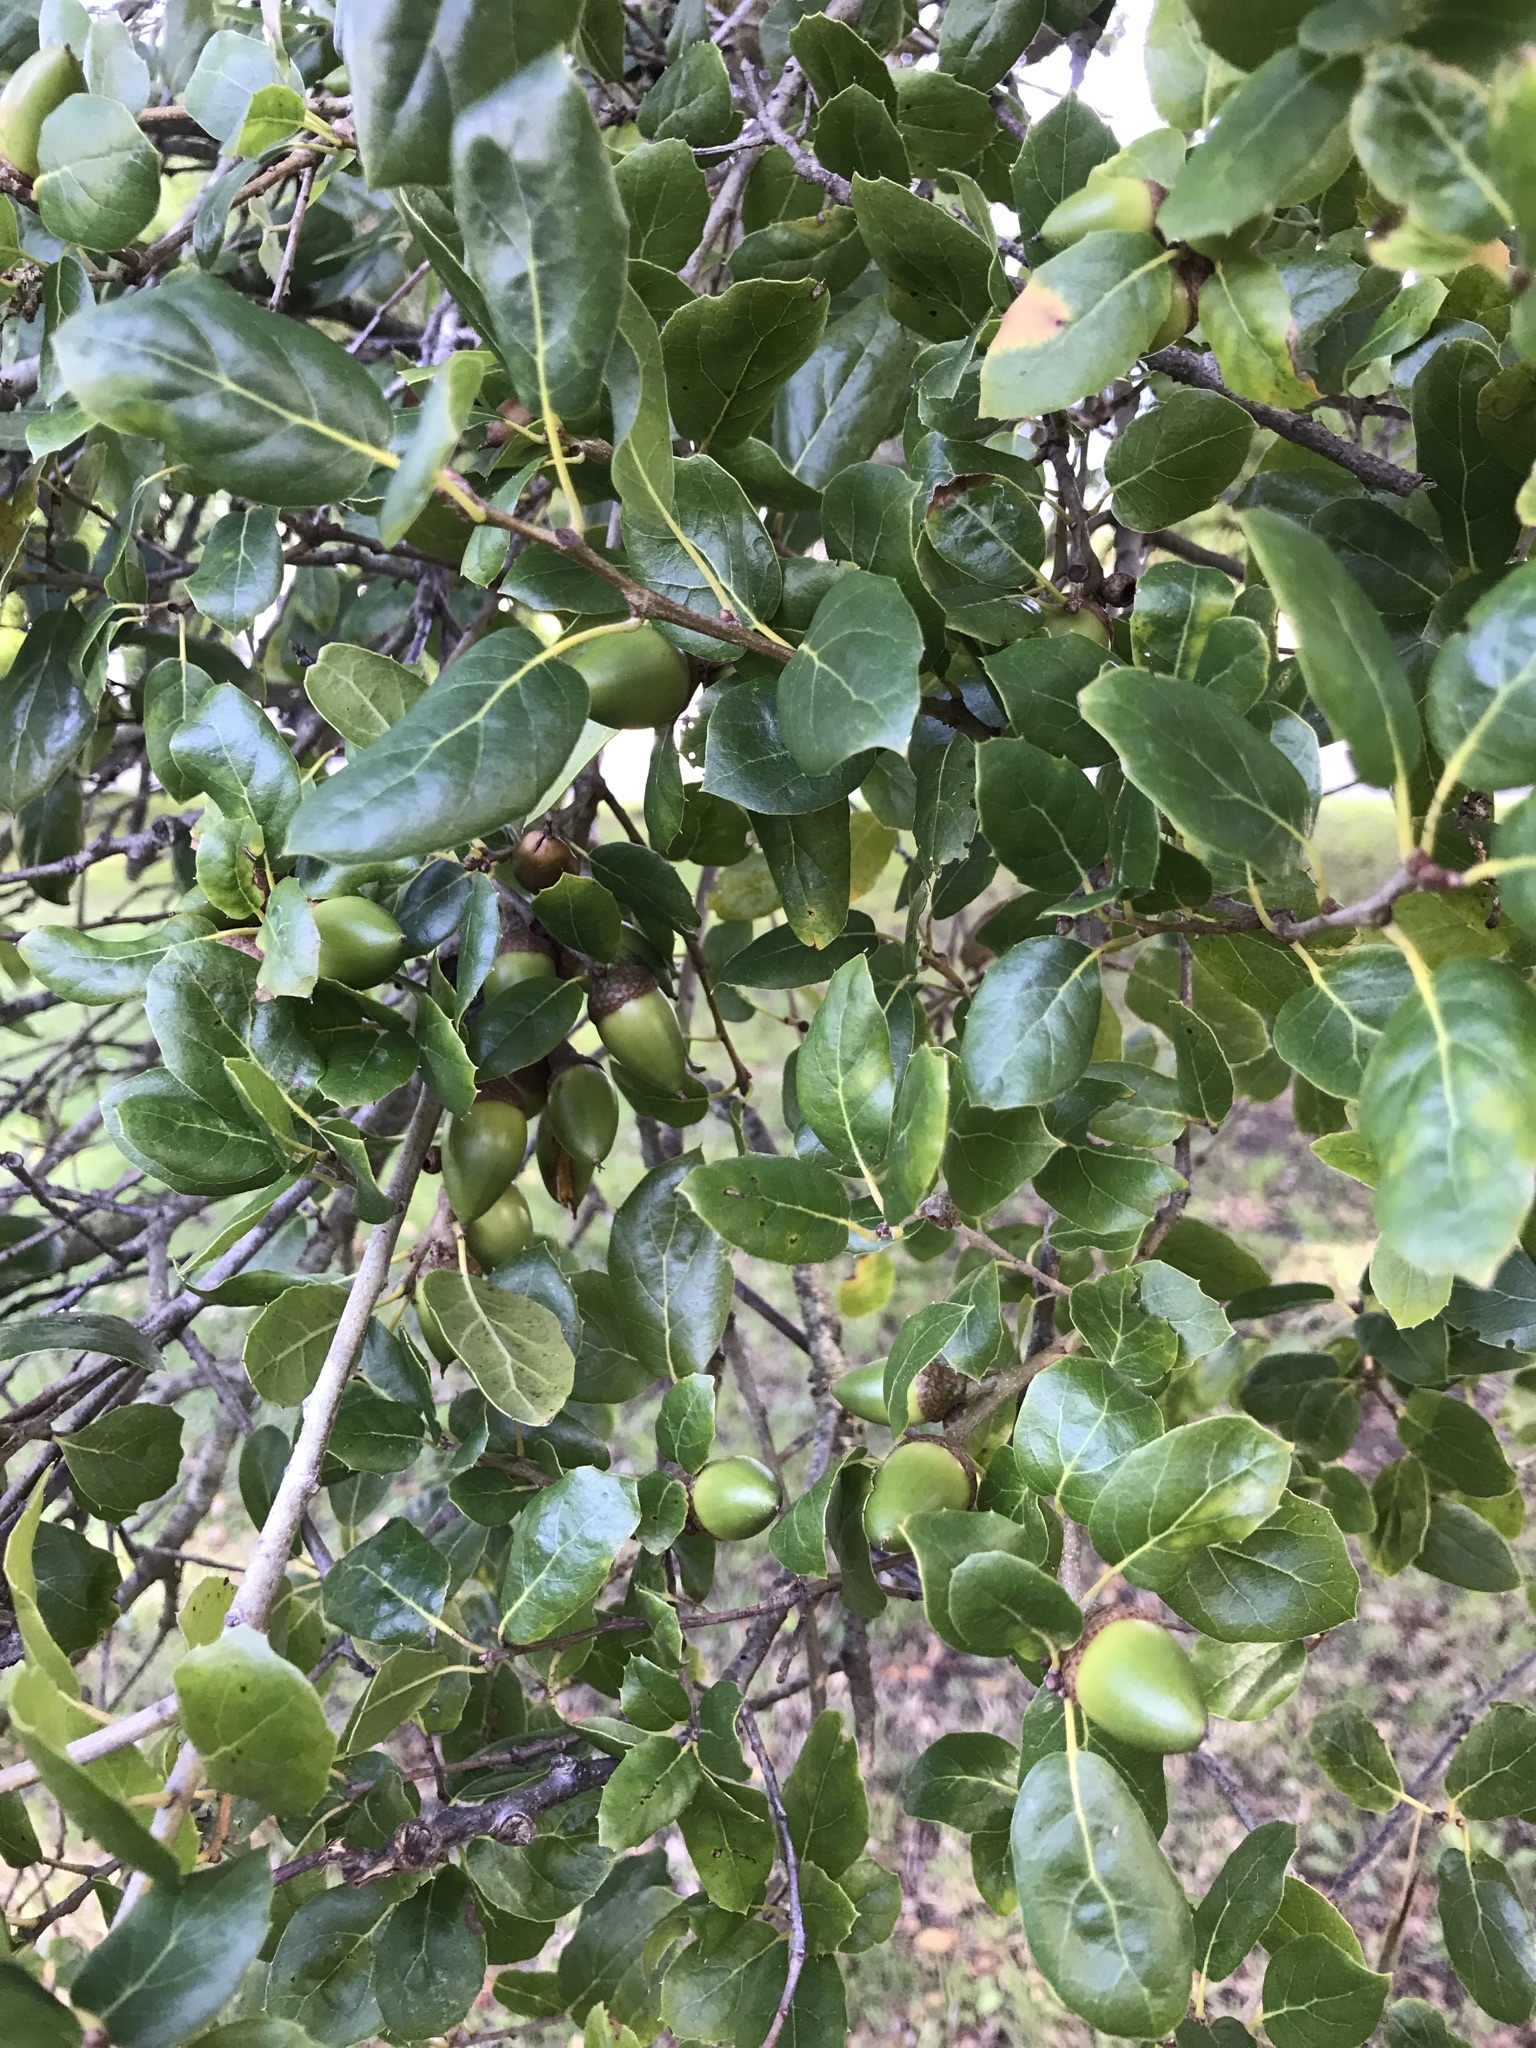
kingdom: Plantae
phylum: Tracheophyta
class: Magnoliopsida
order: Fagales
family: Fagaceae
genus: Quercus
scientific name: Quercus agrifolia
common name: California live oak
